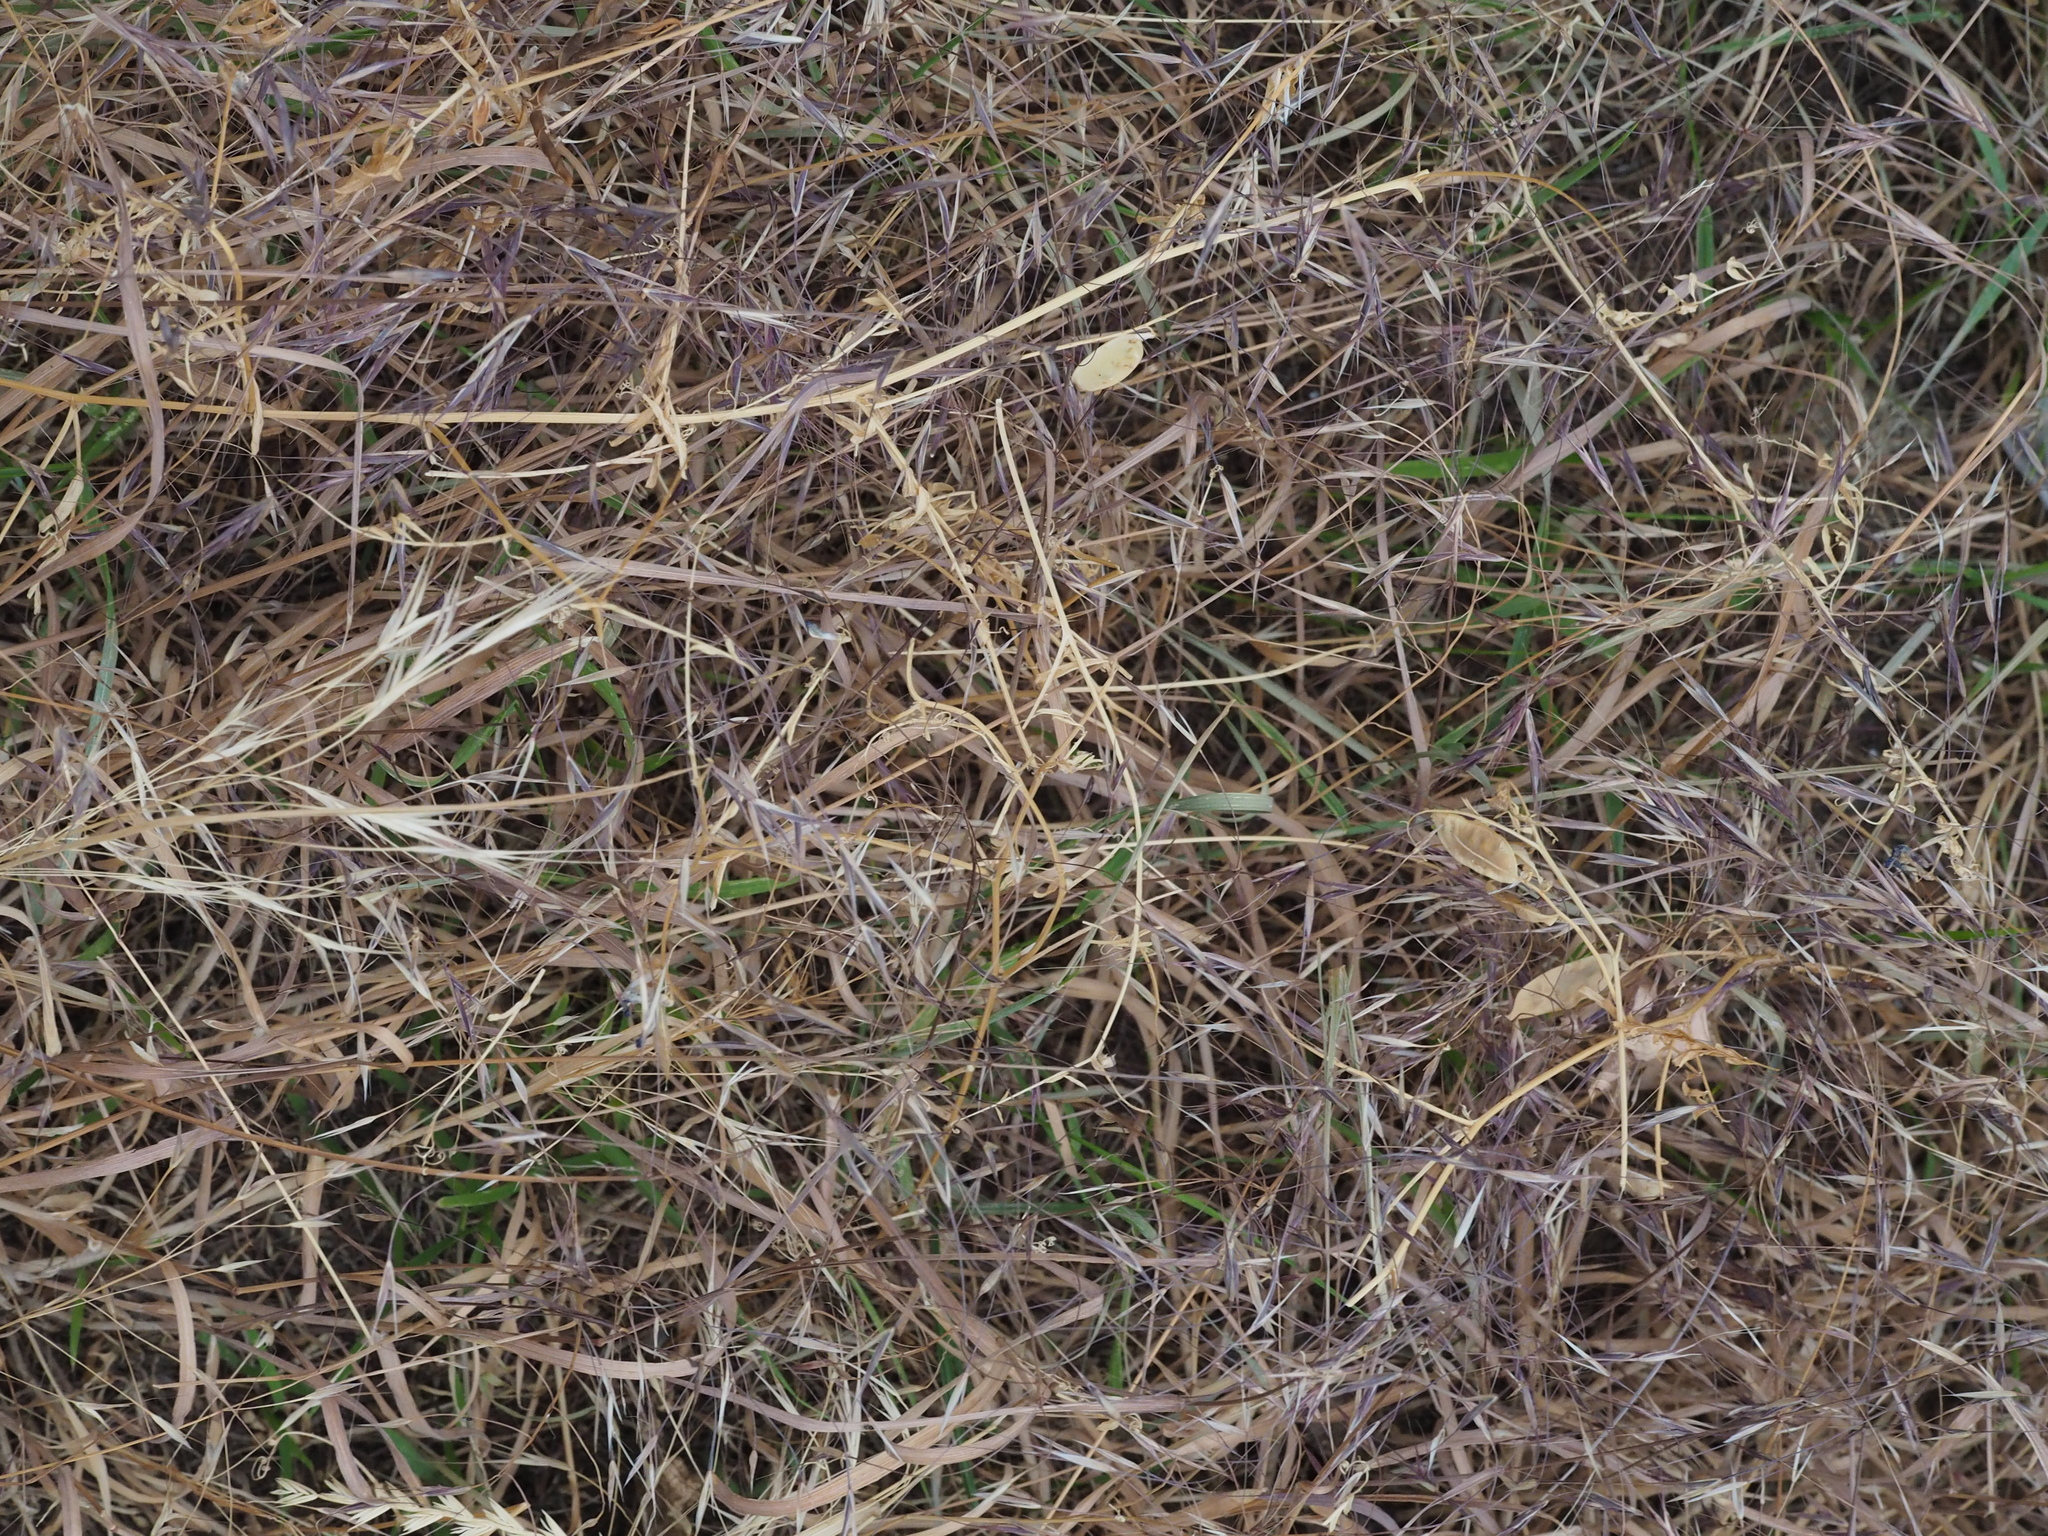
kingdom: Plantae
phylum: Tracheophyta
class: Liliopsida
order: Poales
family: Poaceae
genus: Bromus
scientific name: Bromus sterilis
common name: Poverty brome
